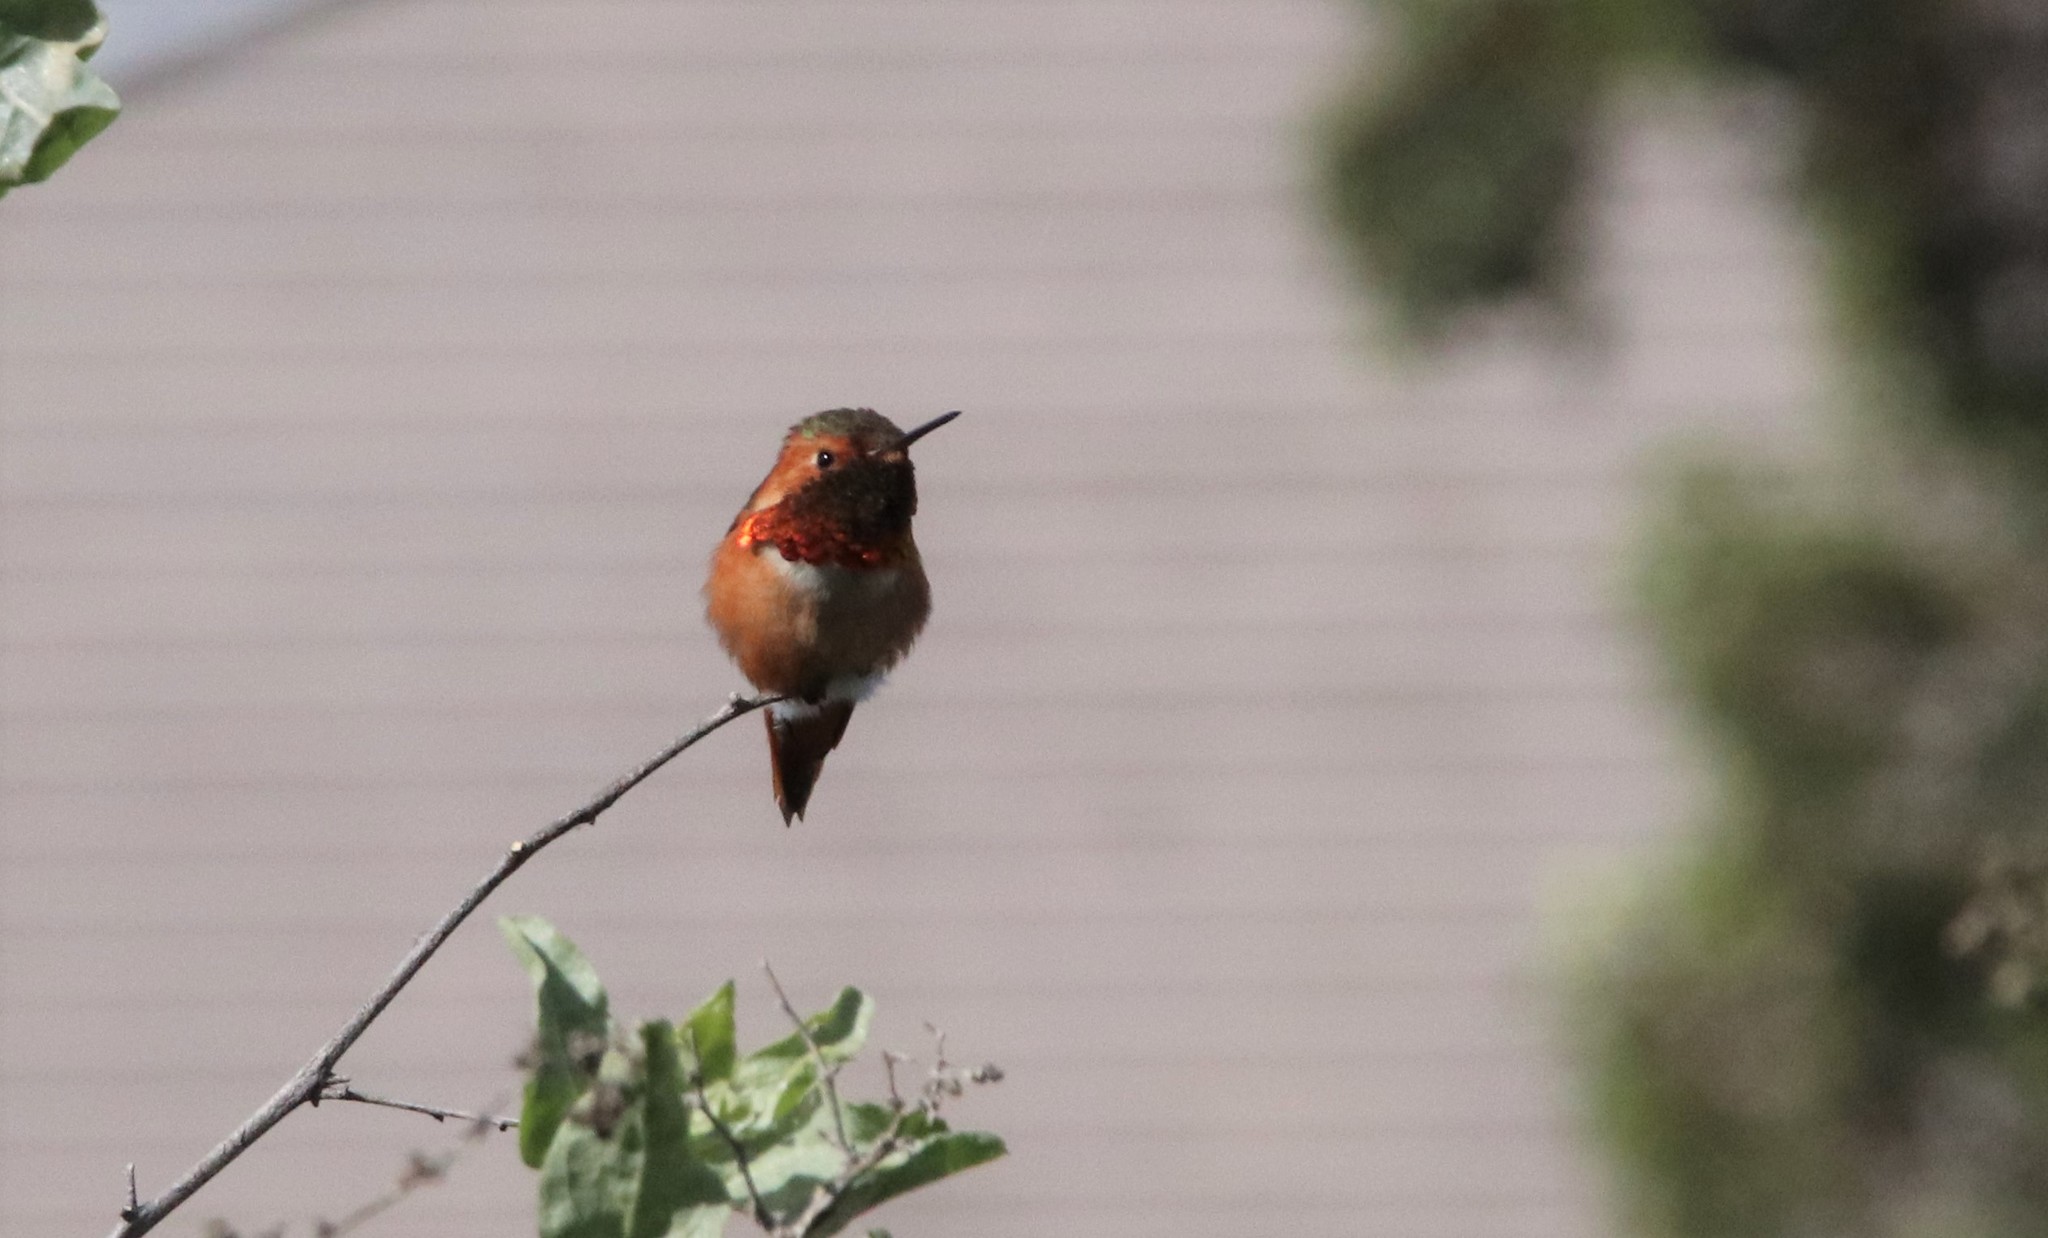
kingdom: Animalia
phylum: Chordata
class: Aves
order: Apodiformes
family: Trochilidae
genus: Selasphorus
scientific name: Selasphorus sasin
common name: Allen's hummingbird
